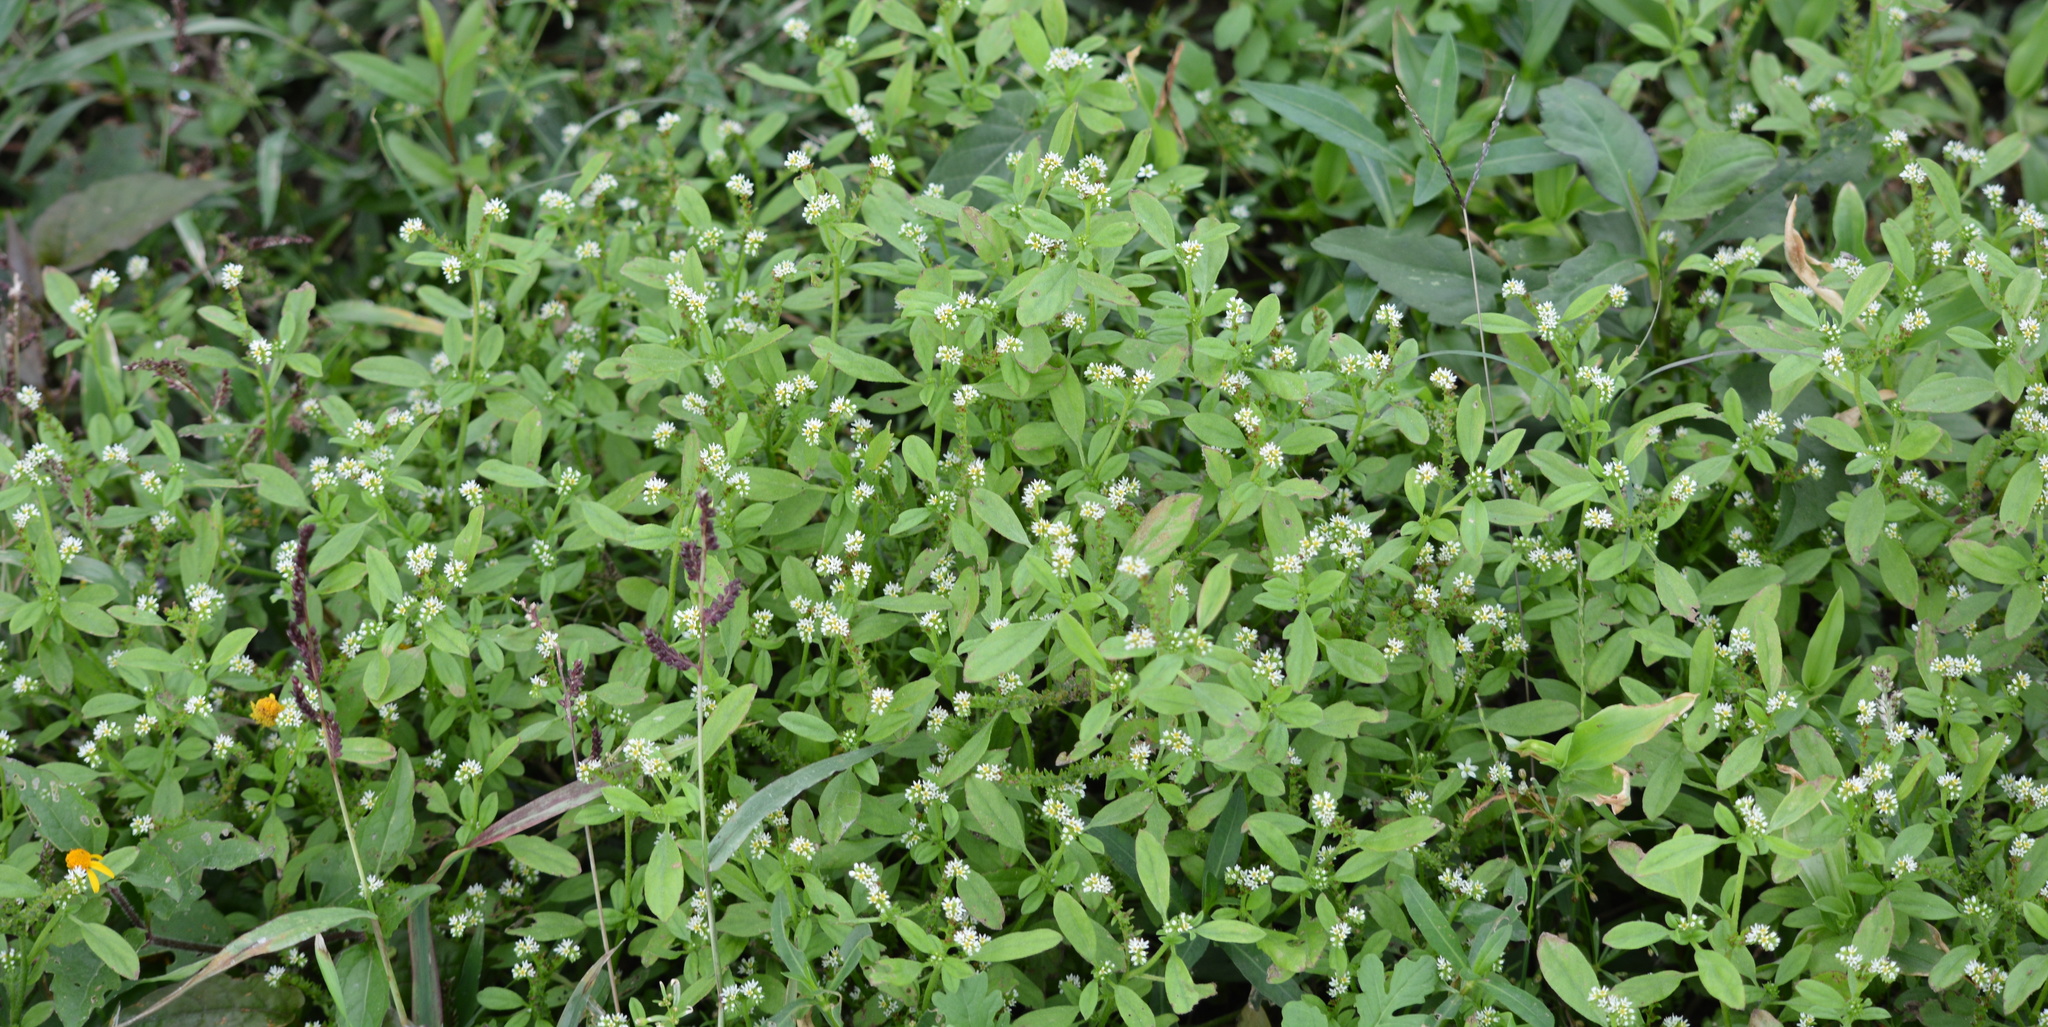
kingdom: Plantae
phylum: Tracheophyta
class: Magnoliopsida
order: Boraginales
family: Heliotropiaceae
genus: Euploca
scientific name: Euploca procumbens
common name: Fourspike heliotrope
